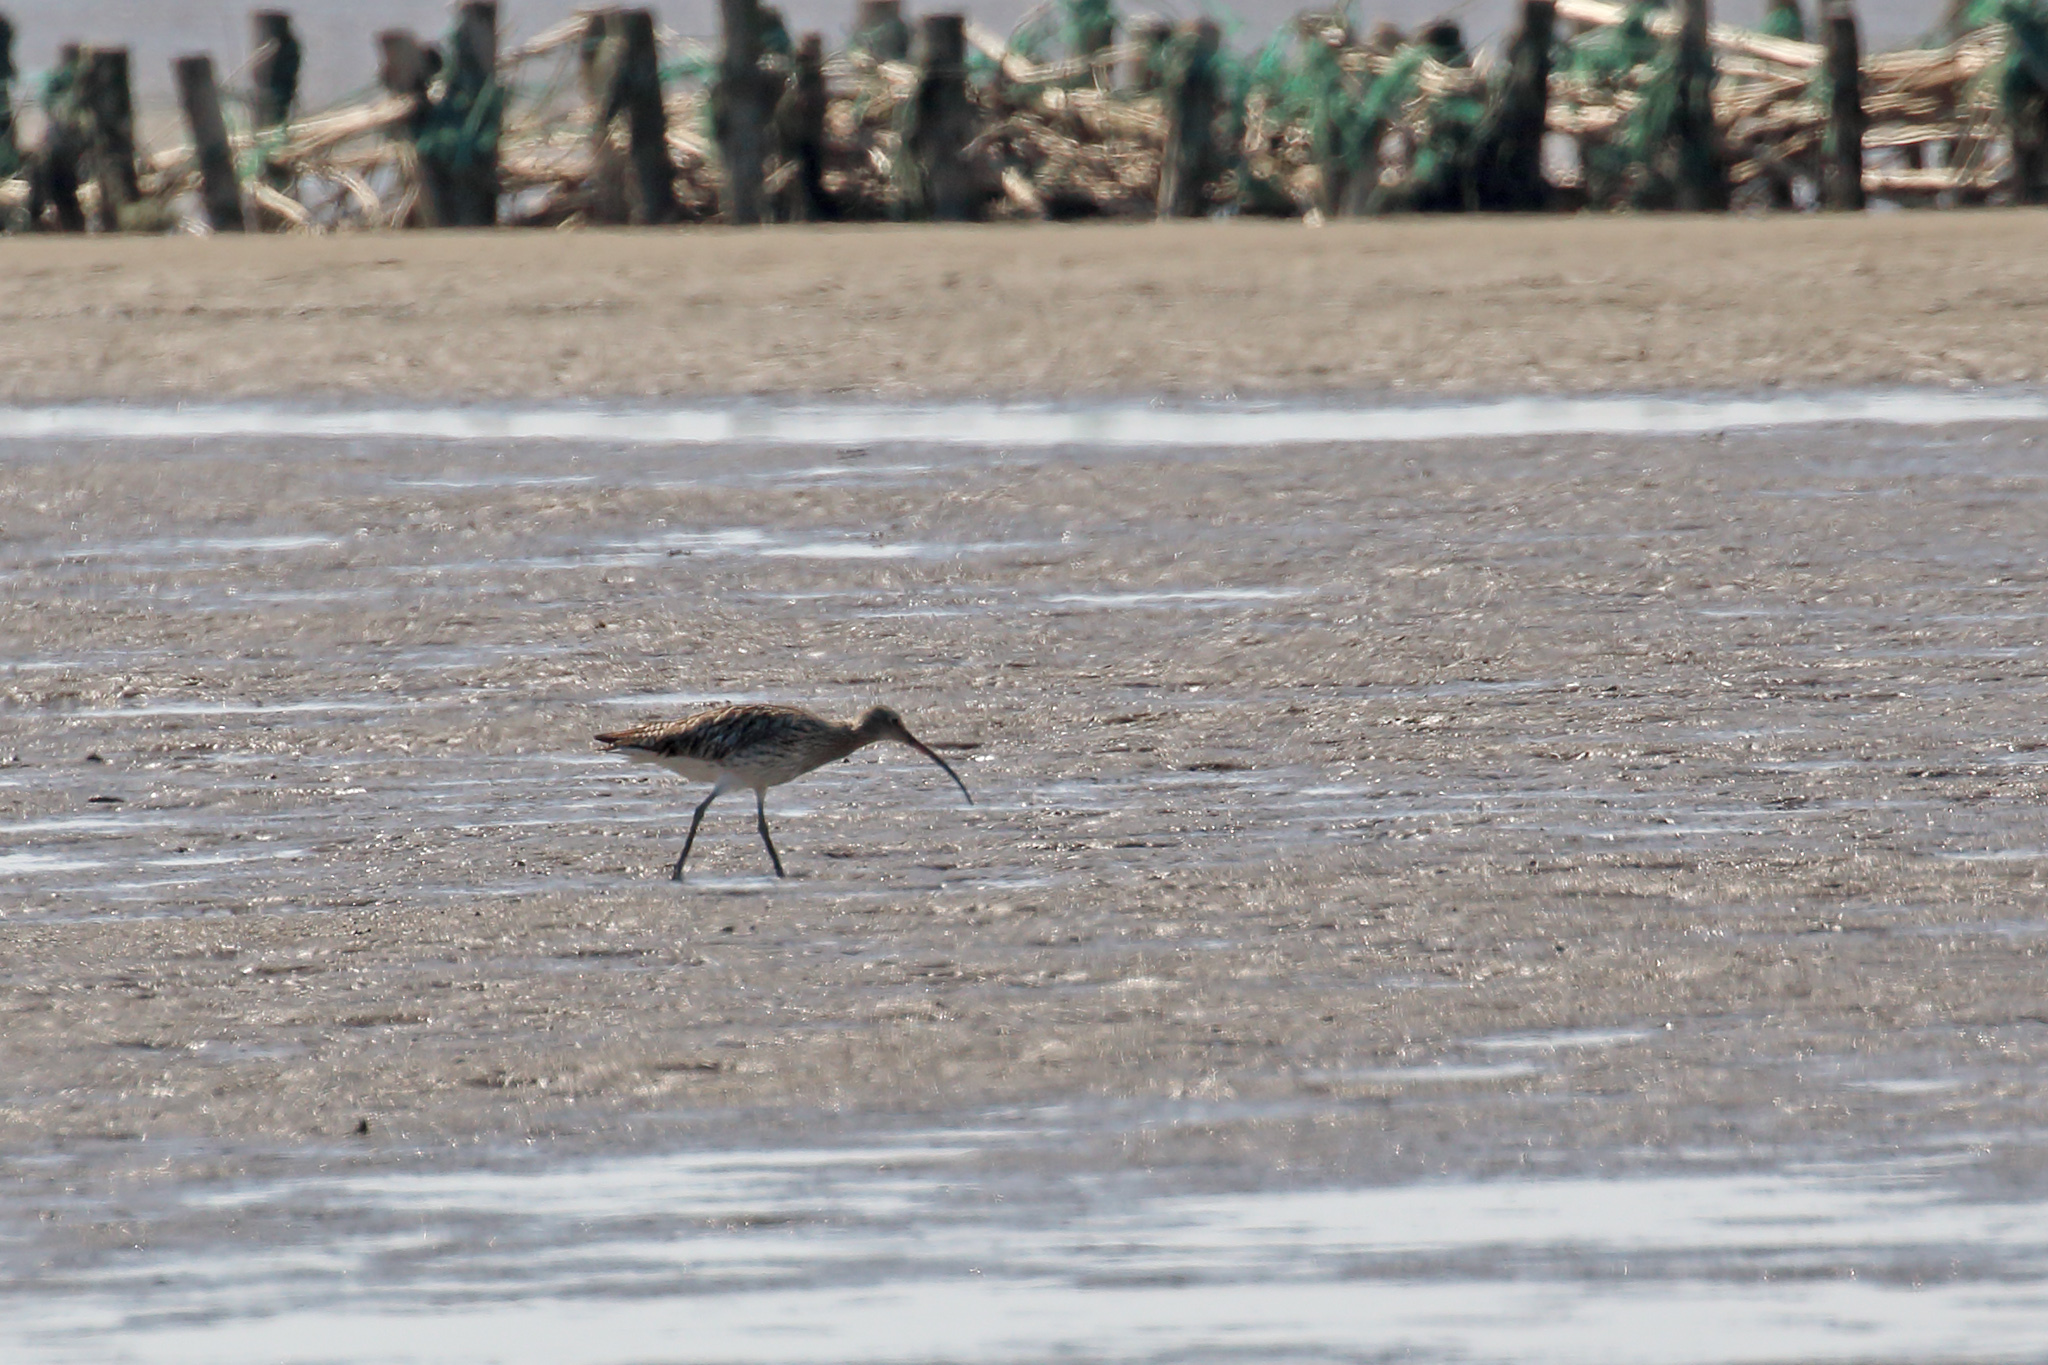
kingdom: Animalia
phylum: Chordata
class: Aves
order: Charadriiformes
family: Scolopacidae
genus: Numenius
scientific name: Numenius arquata
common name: Eurasian curlew
